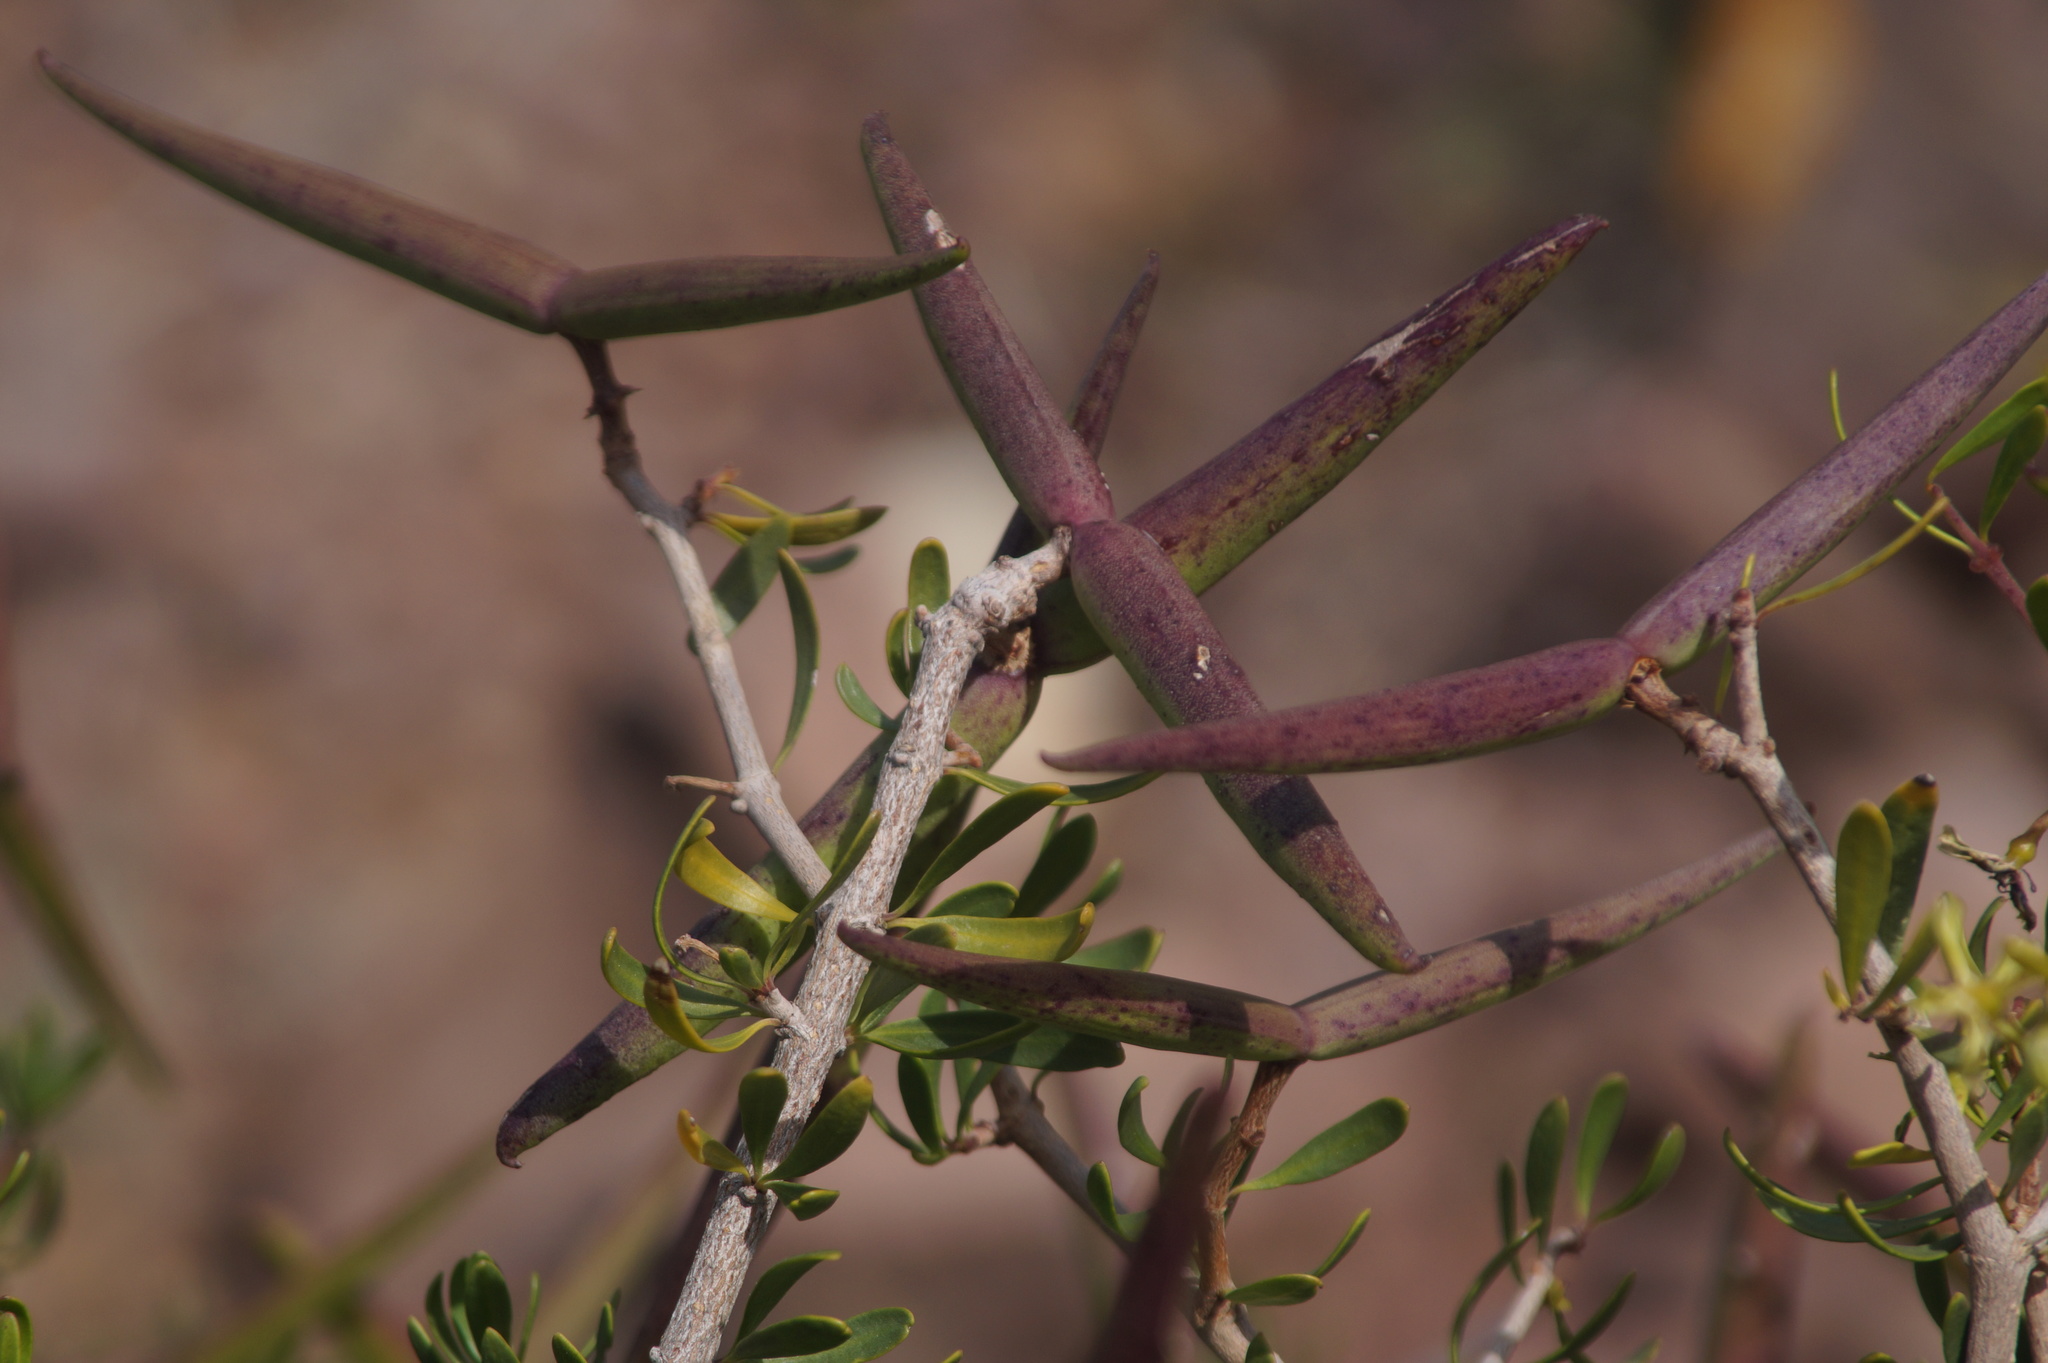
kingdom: Plantae
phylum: Tracheophyta
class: Magnoliopsida
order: Gentianales
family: Apocynaceae
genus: Periploca
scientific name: Periploca laevigata
